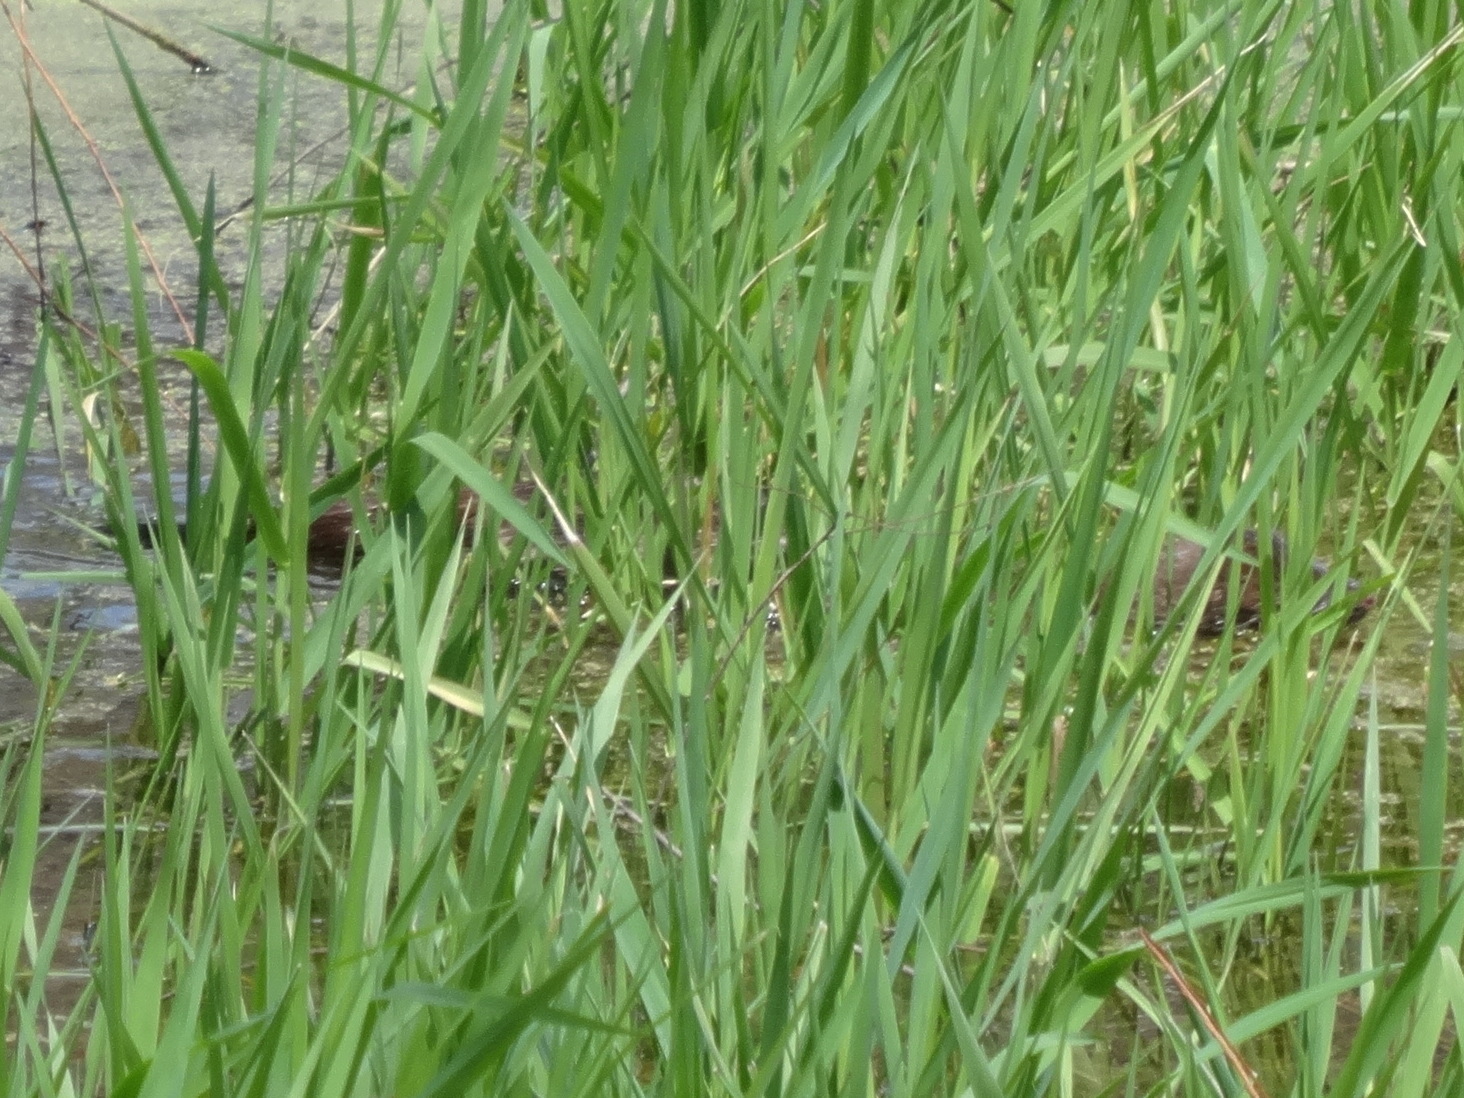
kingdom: Animalia
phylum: Chordata
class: Mammalia
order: Carnivora
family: Mustelidae
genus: Mustela
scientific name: Mustela
